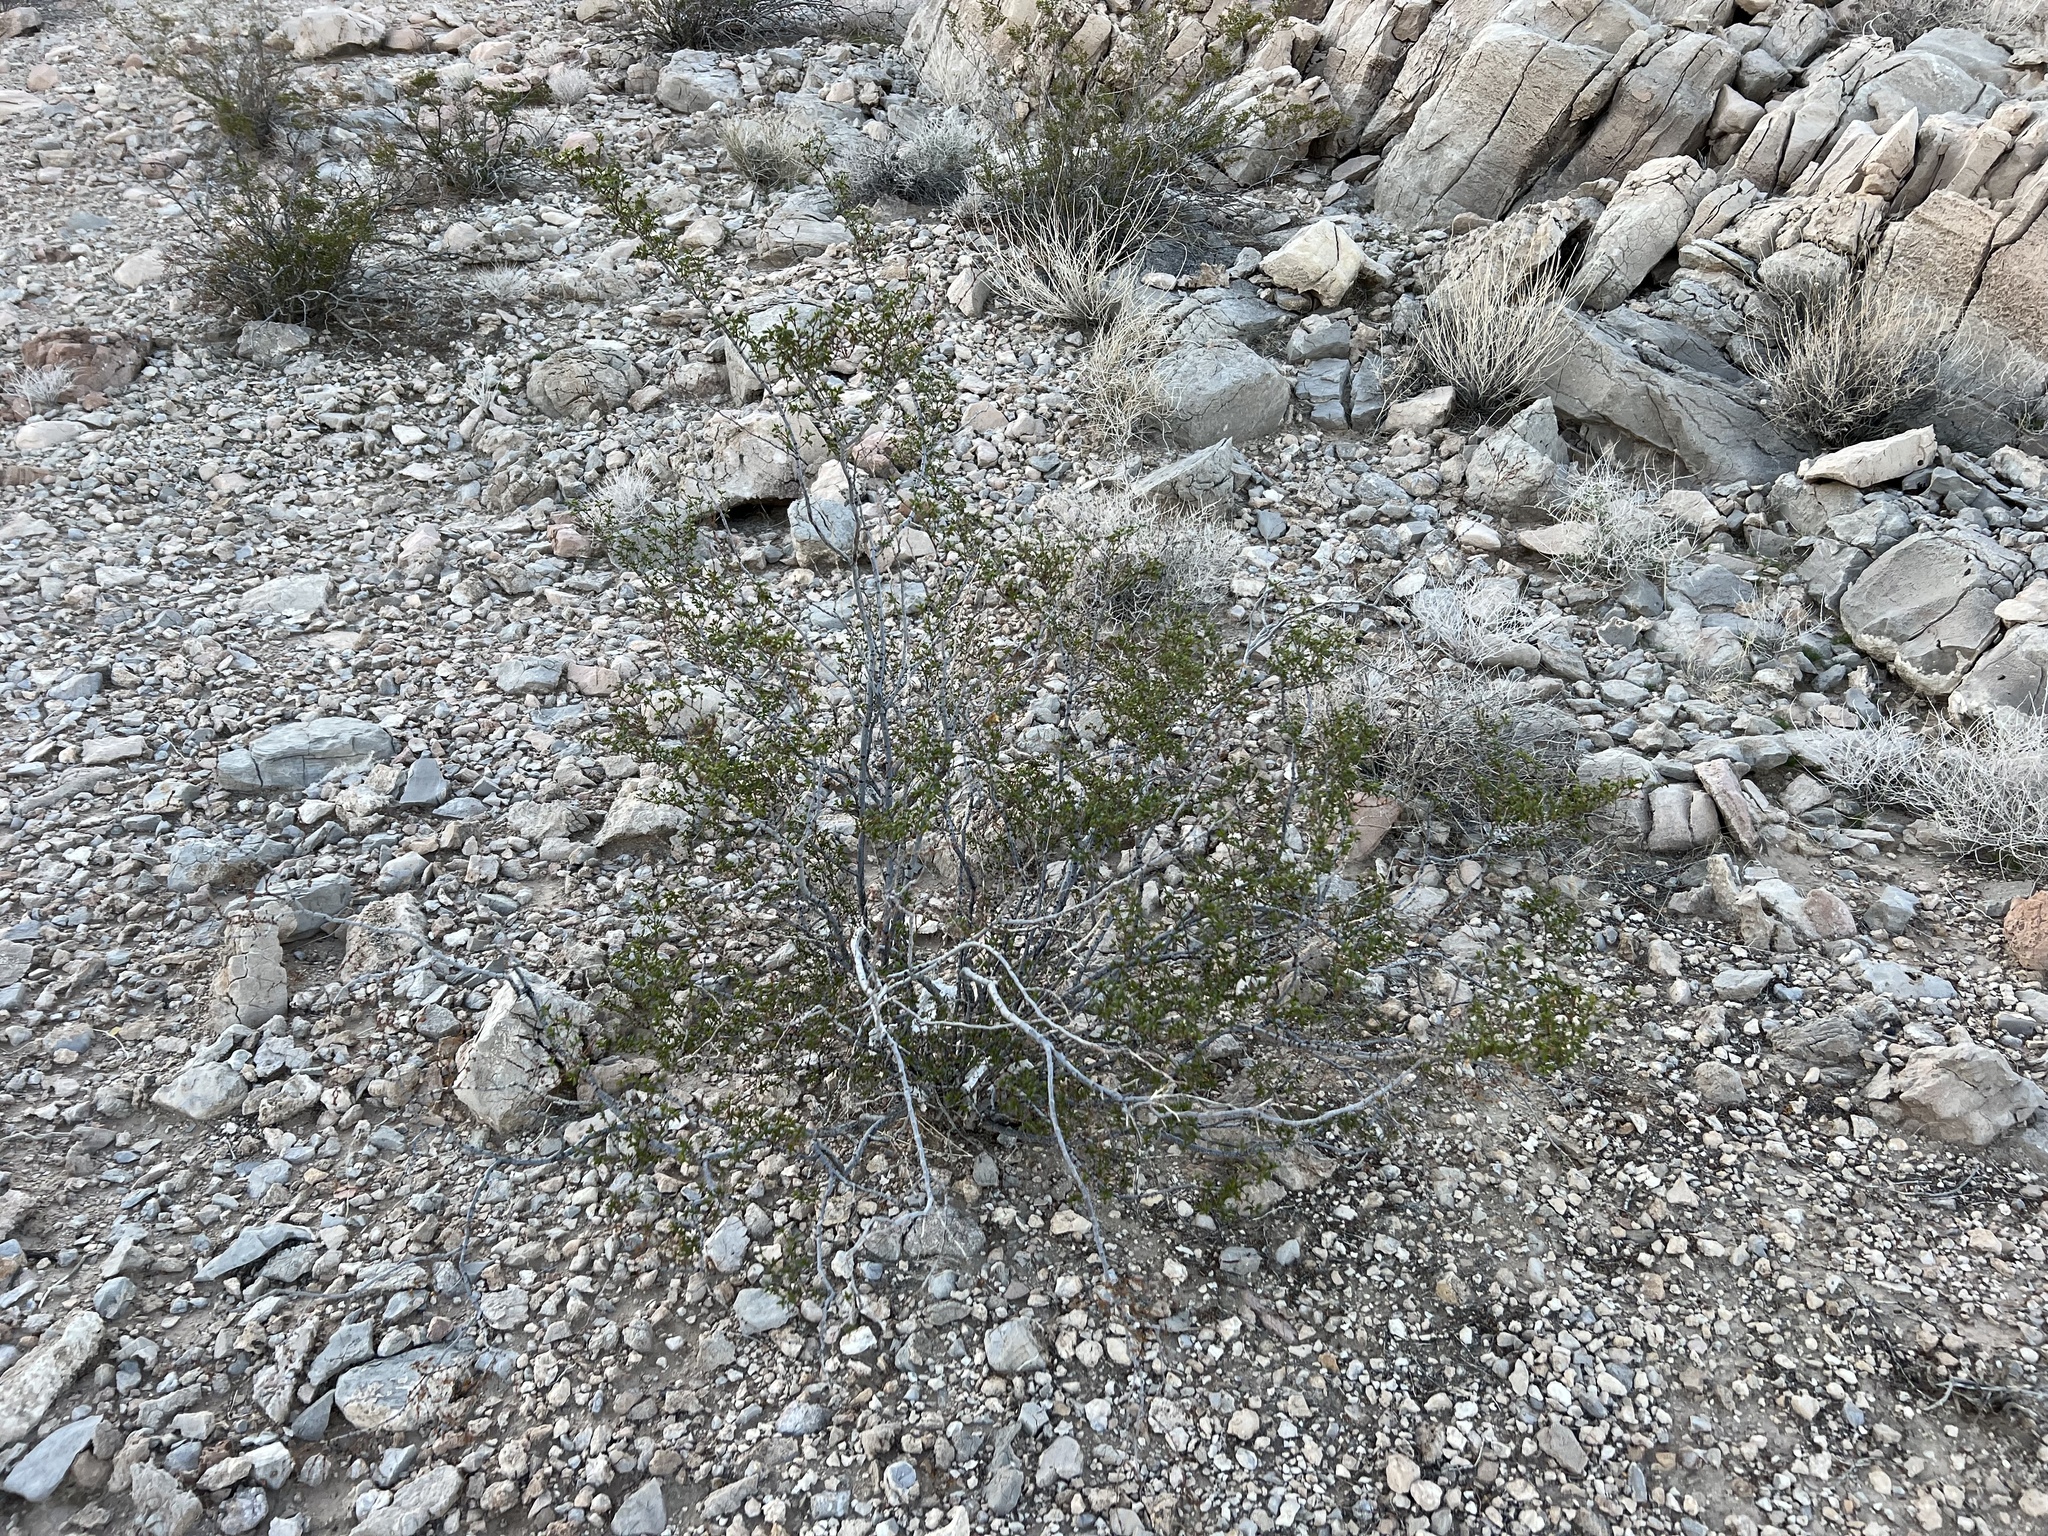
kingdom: Plantae
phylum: Tracheophyta
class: Magnoliopsida
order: Zygophyllales
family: Zygophyllaceae
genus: Larrea
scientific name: Larrea tridentata
